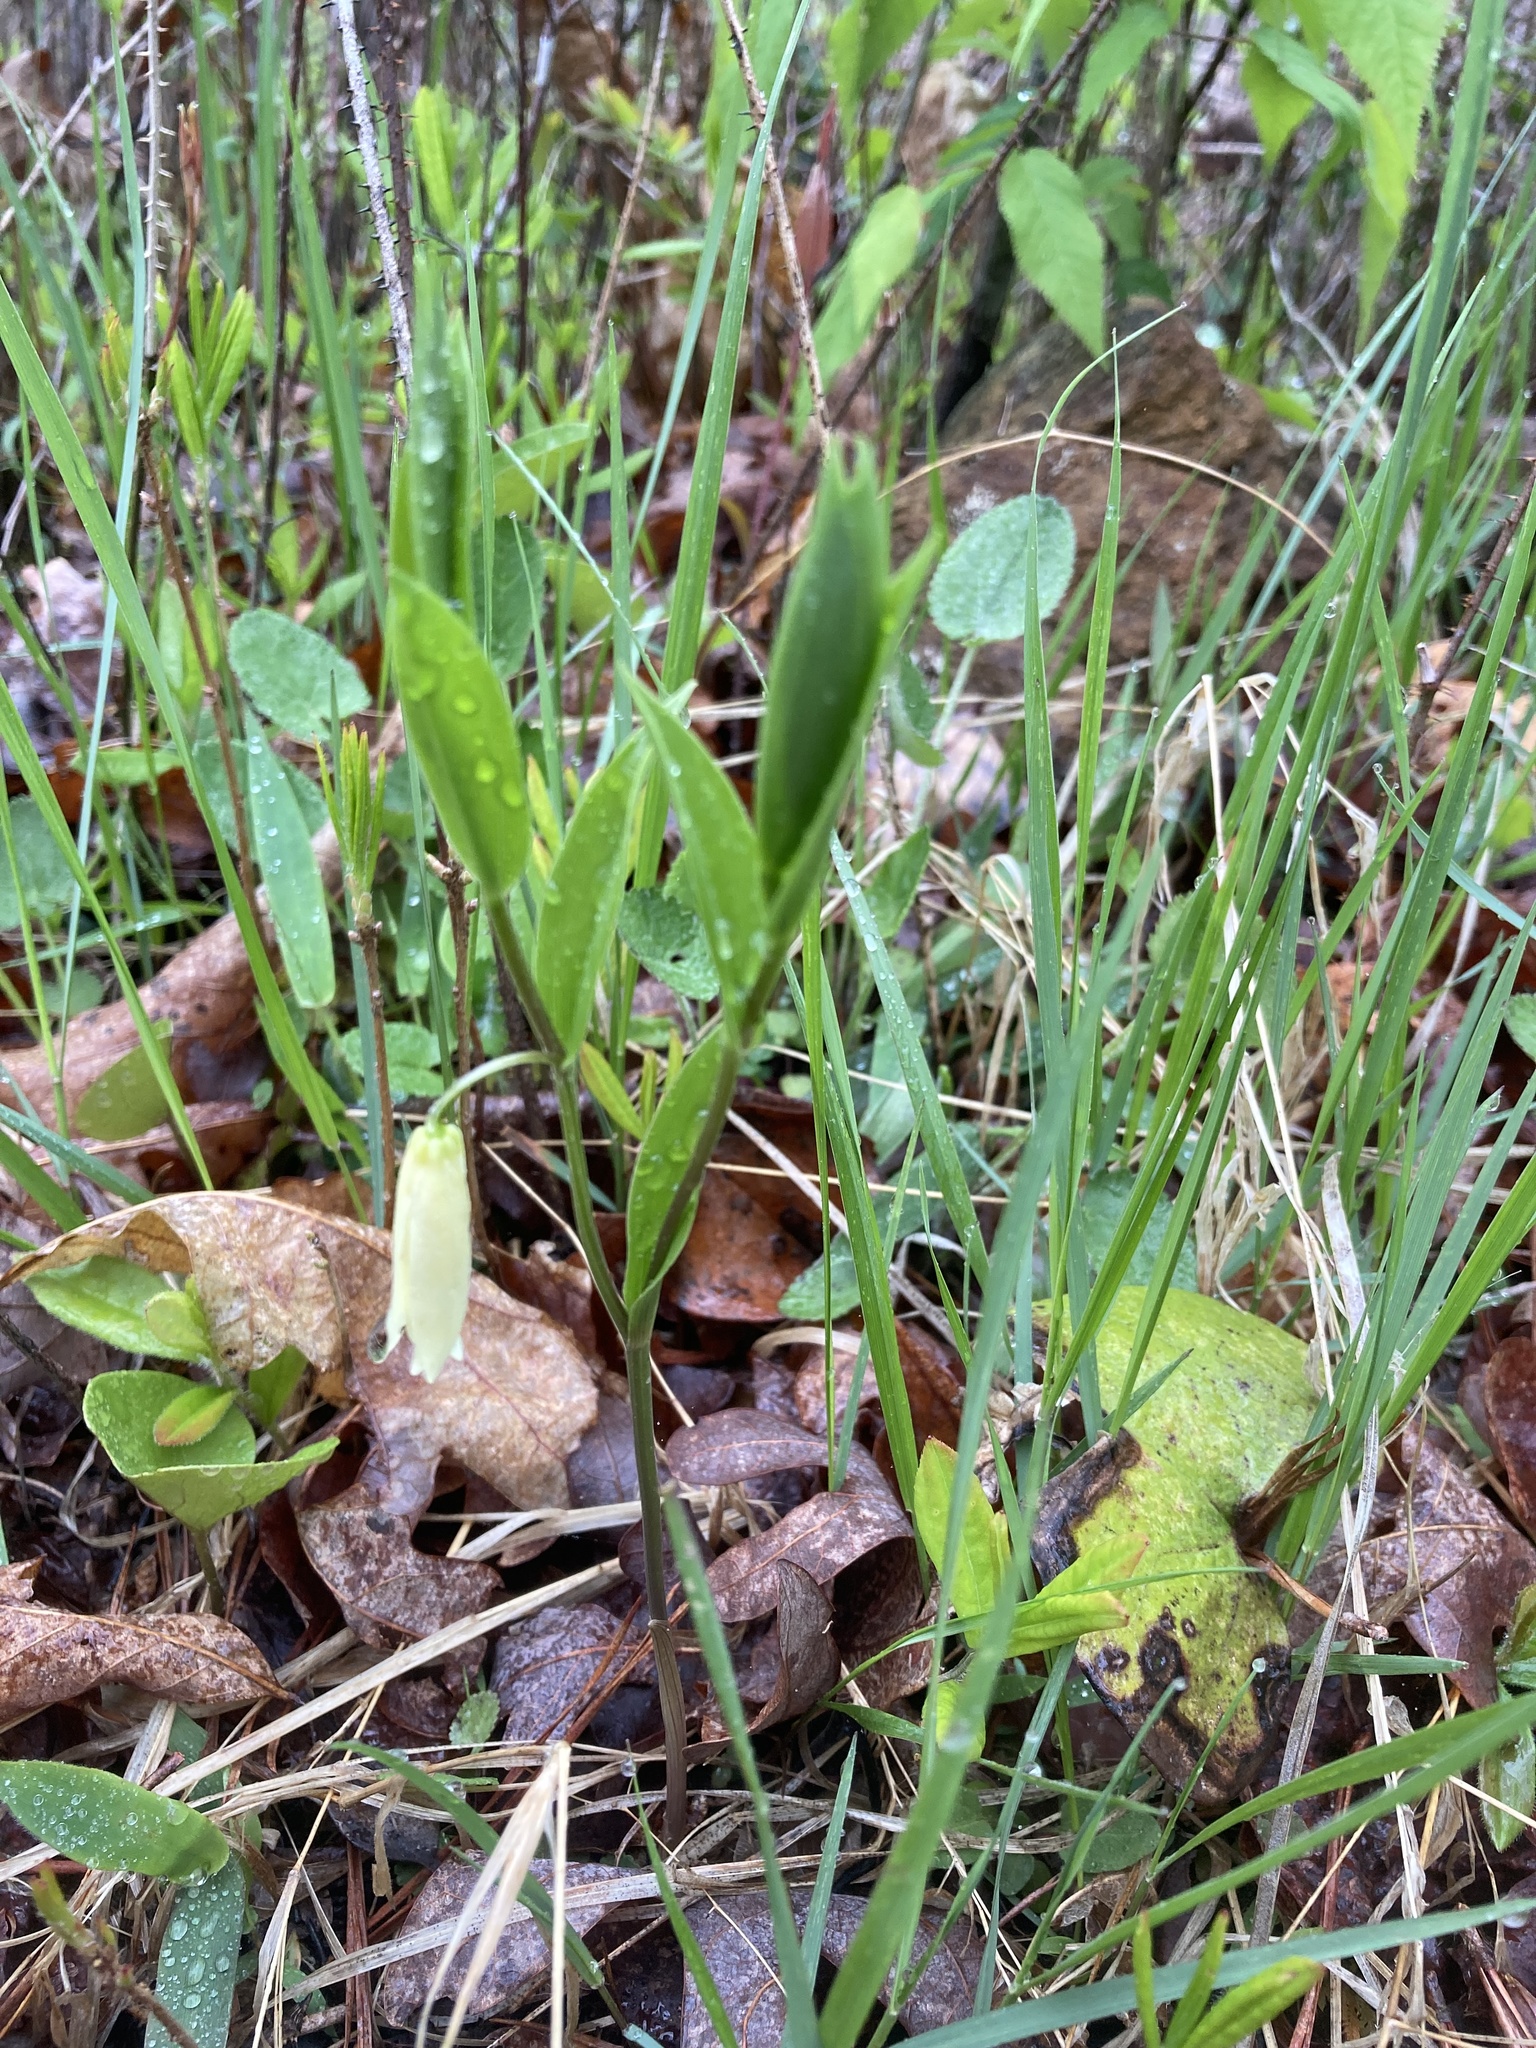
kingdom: Plantae
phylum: Tracheophyta
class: Liliopsida
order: Liliales
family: Colchicaceae
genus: Uvularia
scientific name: Uvularia puberula
